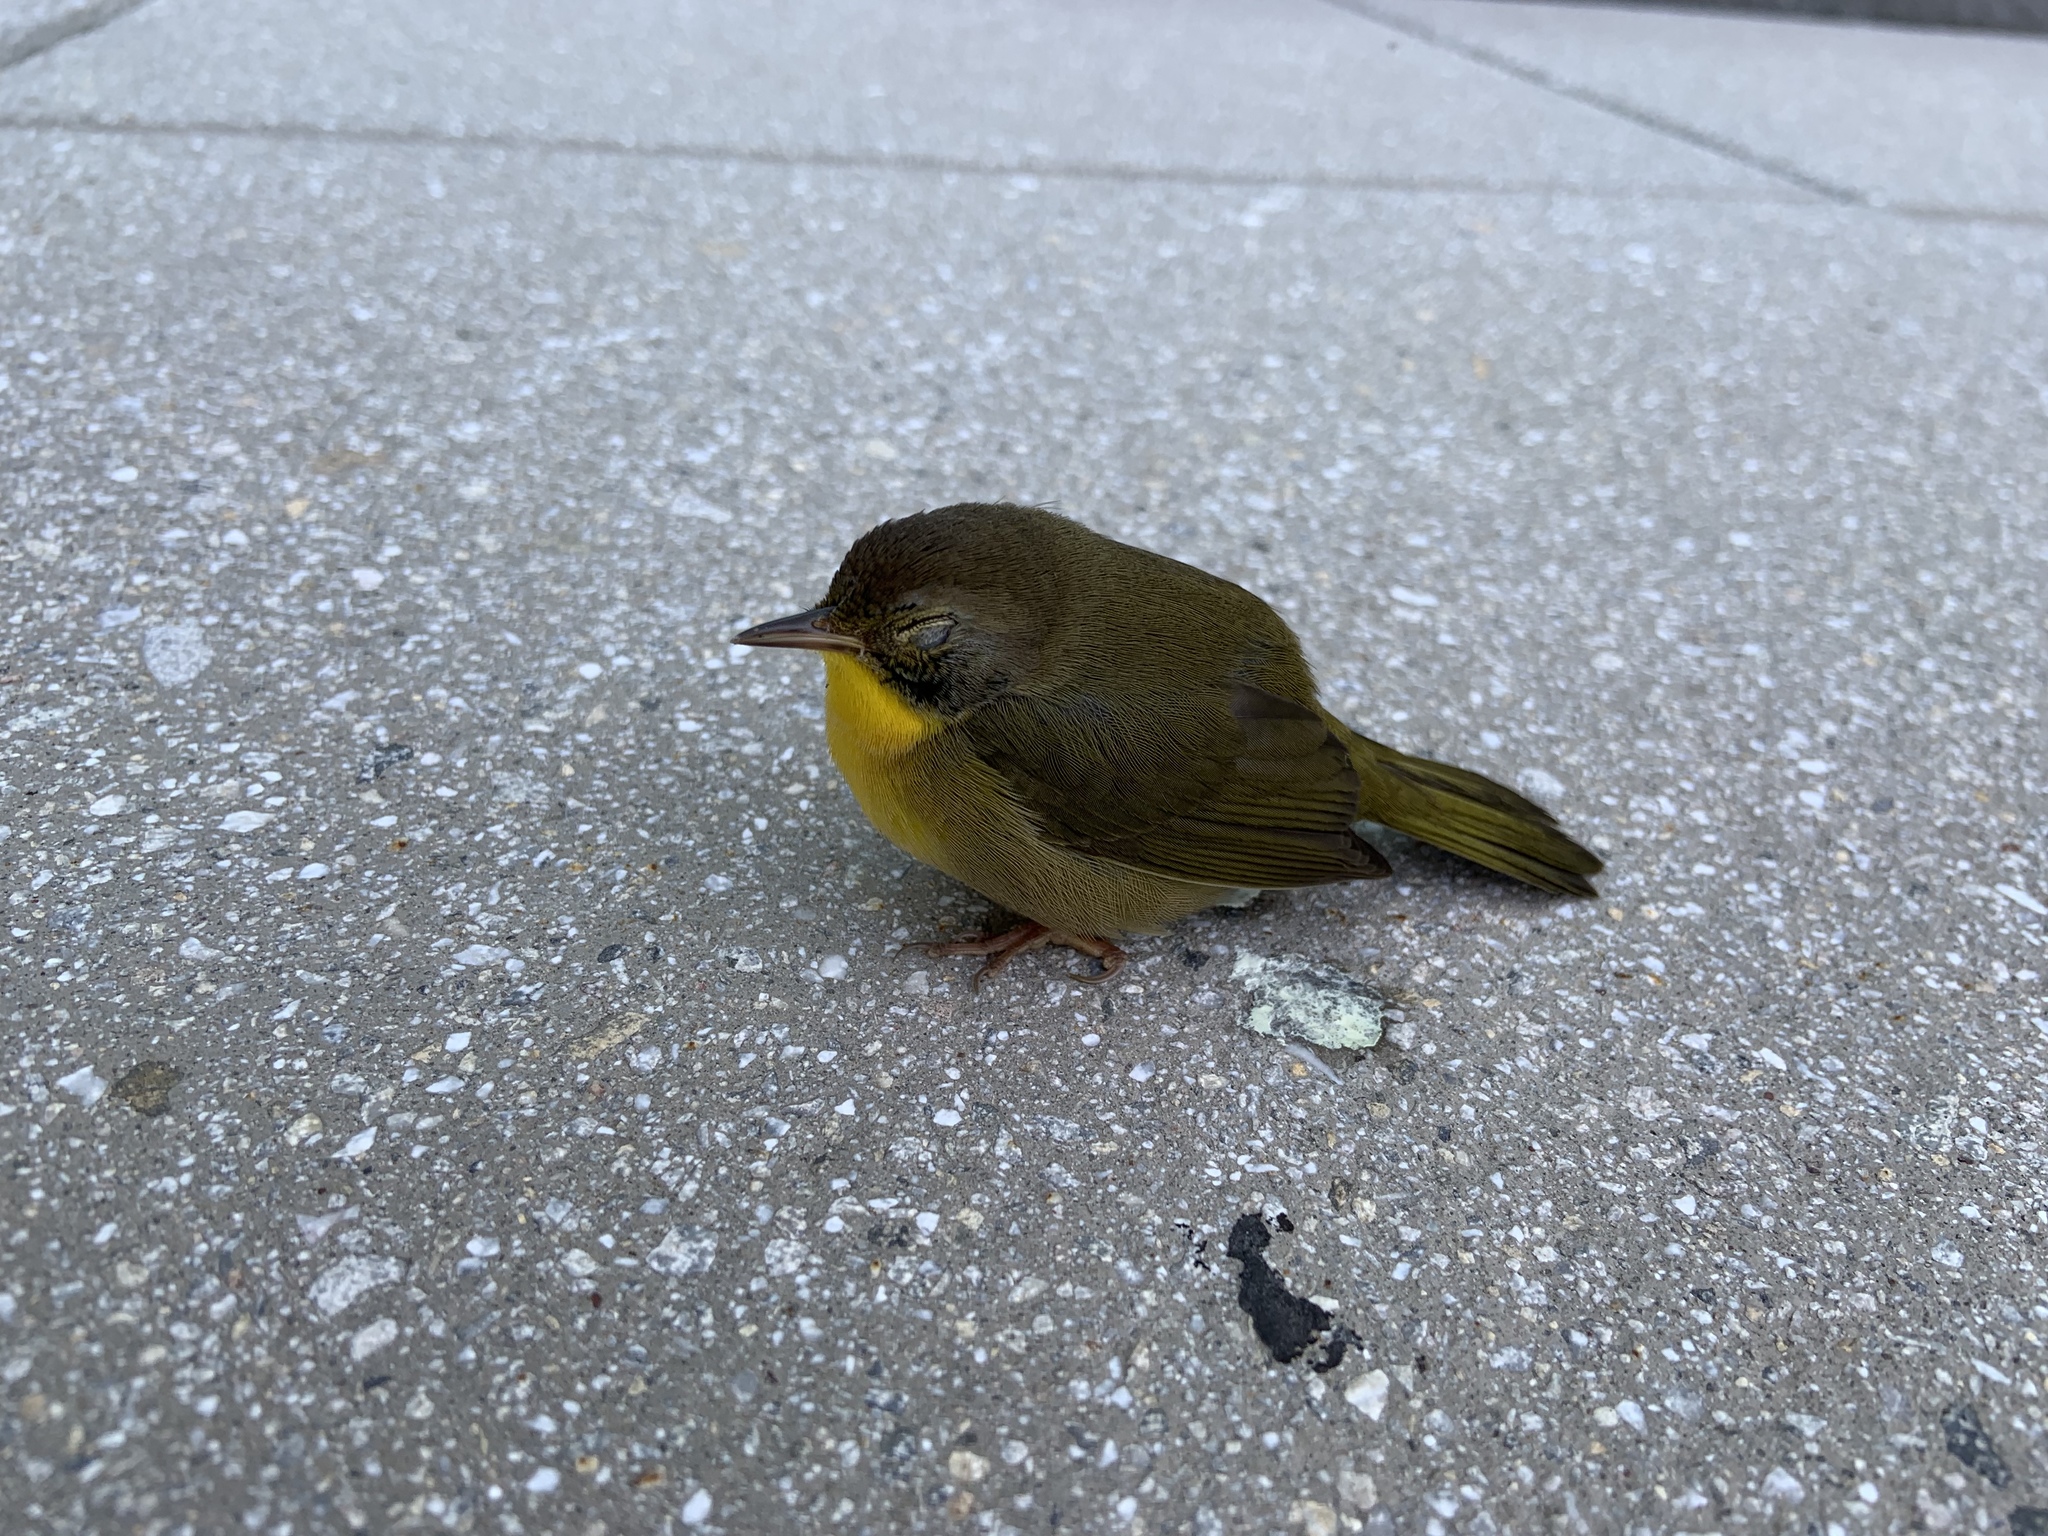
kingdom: Animalia
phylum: Chordata
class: Aves
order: Passeriformes
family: Parulidae
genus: Geothlypis
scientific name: Geothlypis trichas
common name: Common yellowthroat
